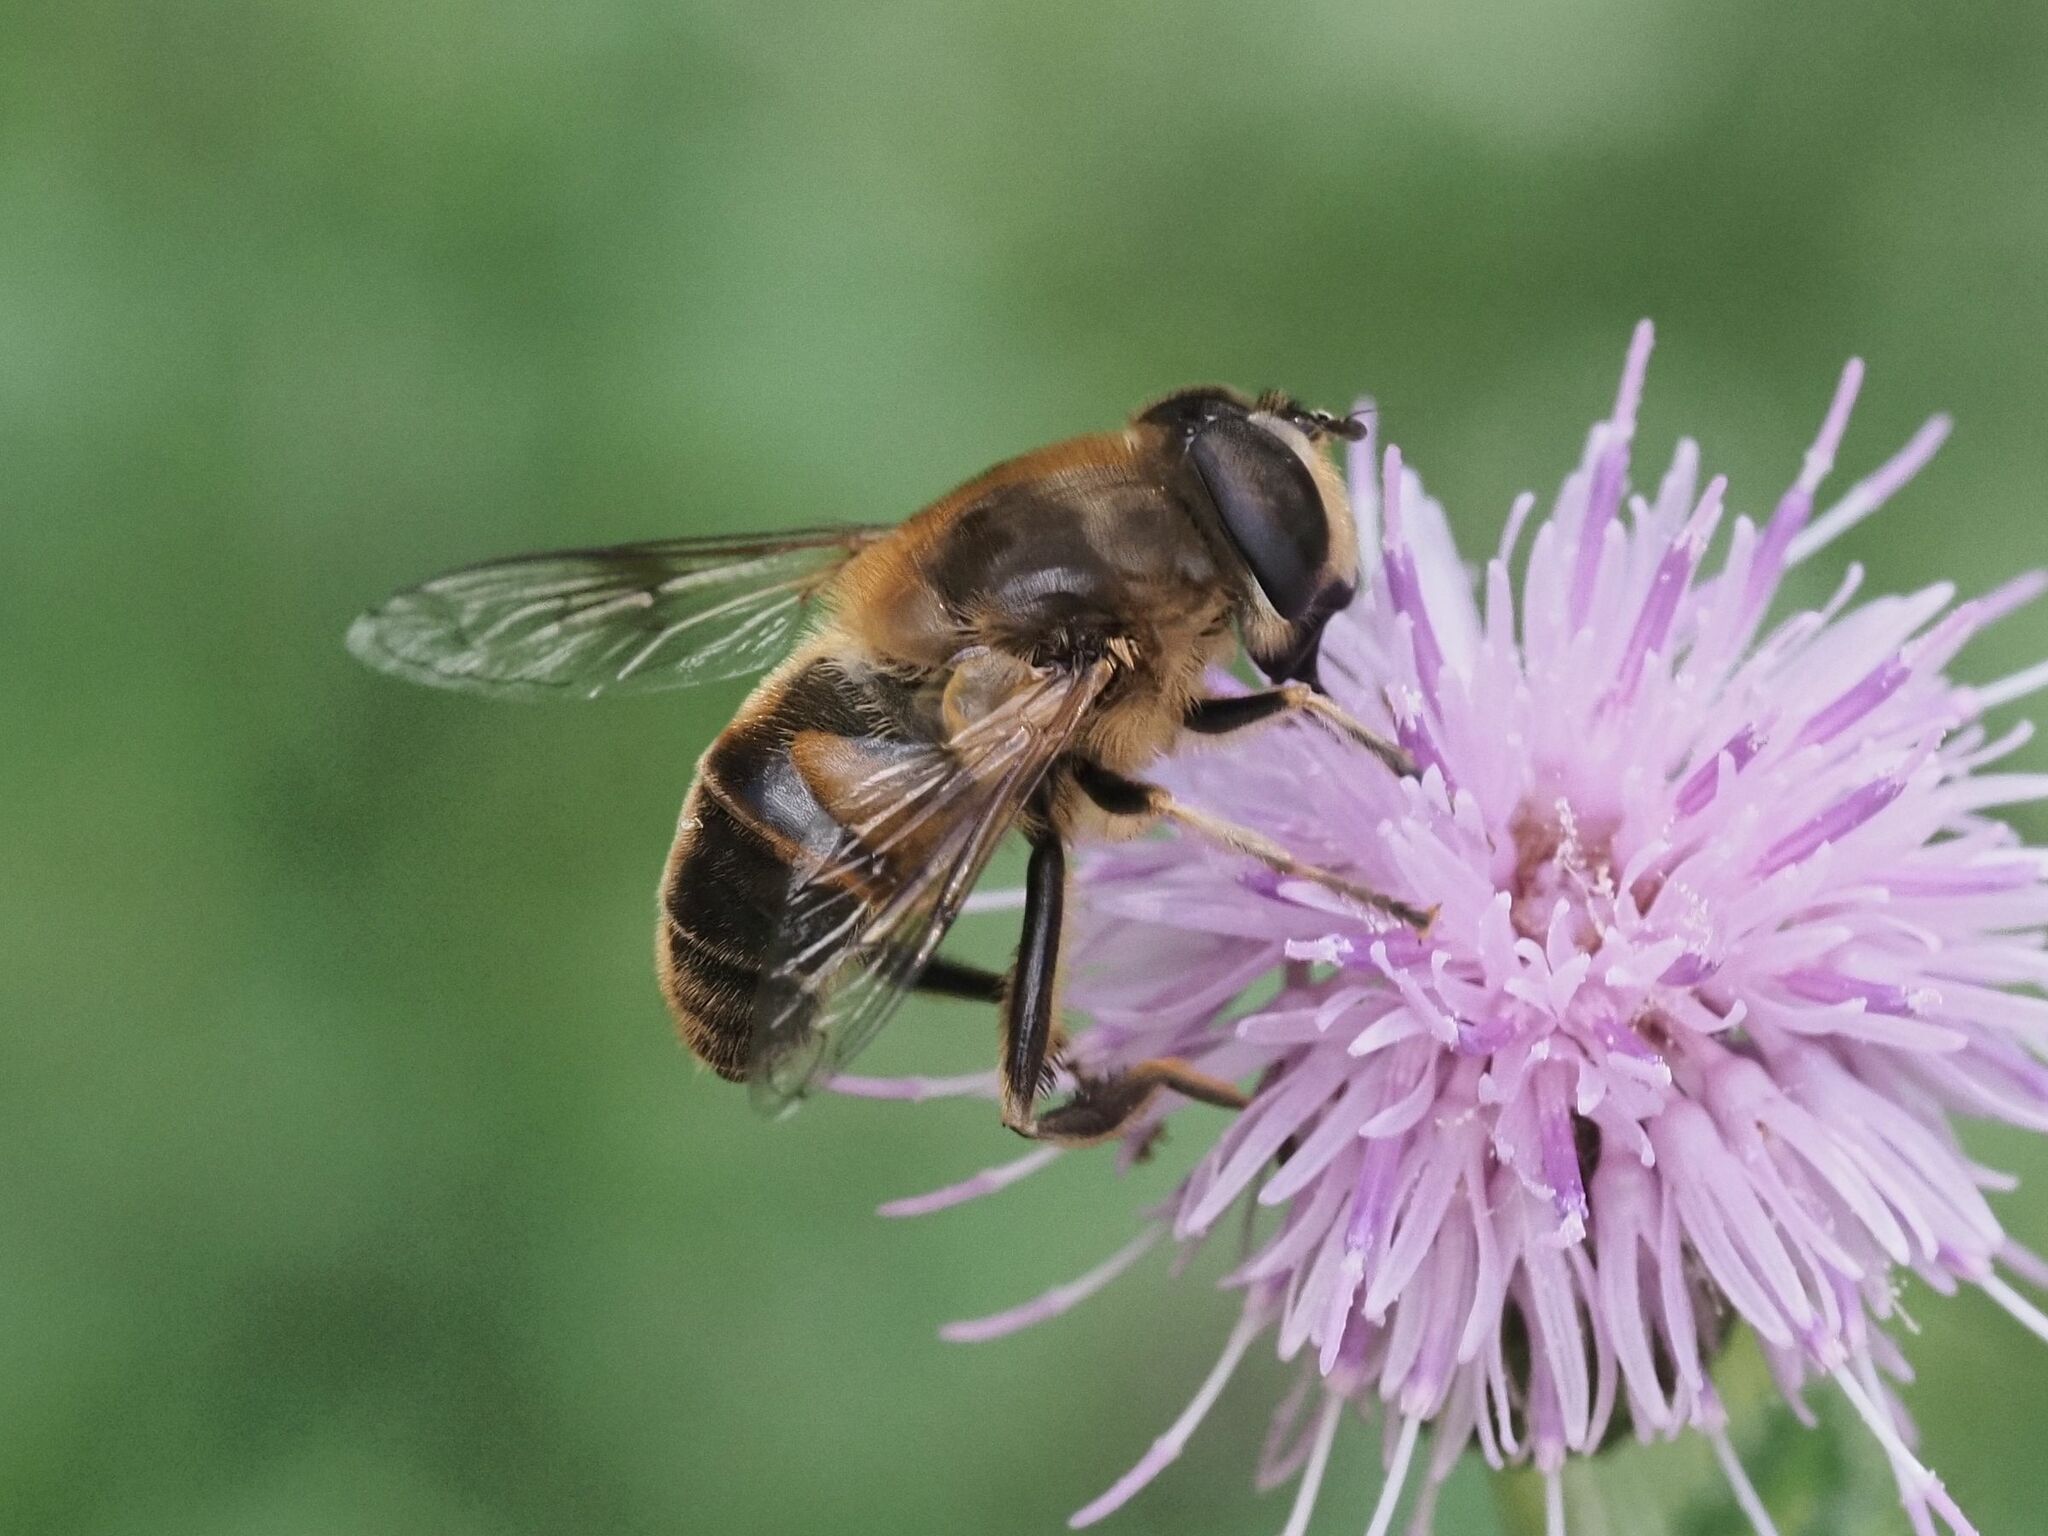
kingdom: Animalia
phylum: Arthropoda
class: Insecta
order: Diptera
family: Syrphidae
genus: Eristalis
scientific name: Eristalis tenax
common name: Drone fly
